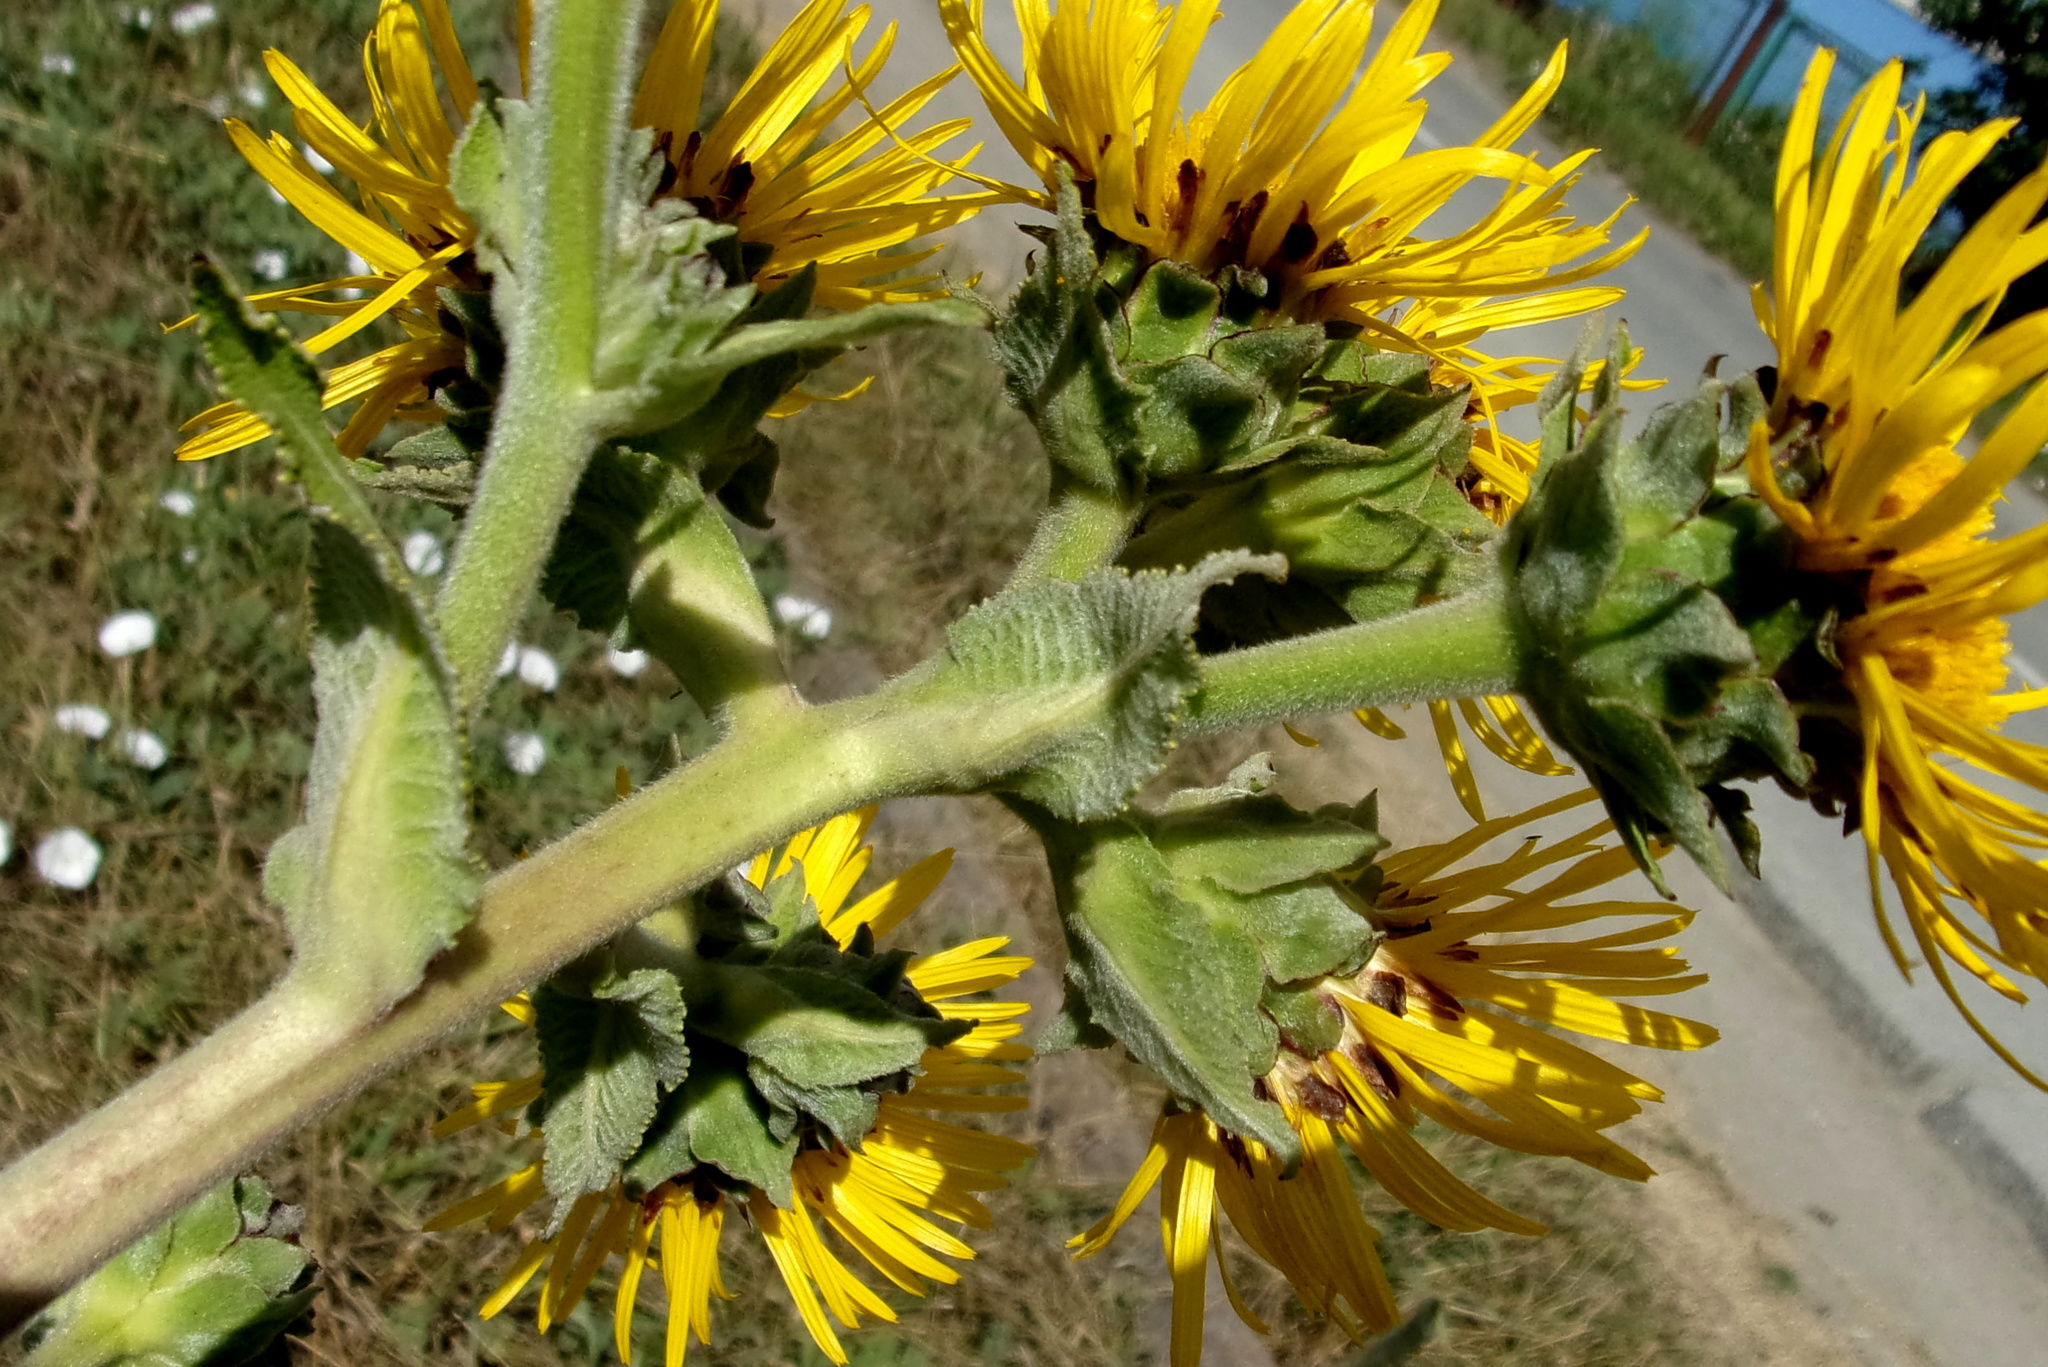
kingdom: Plantae
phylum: Tracheophyta
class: Magnoliopsida
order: Asterales
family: Asteraceae
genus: Inula
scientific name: Inula helenium
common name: Elecampane
